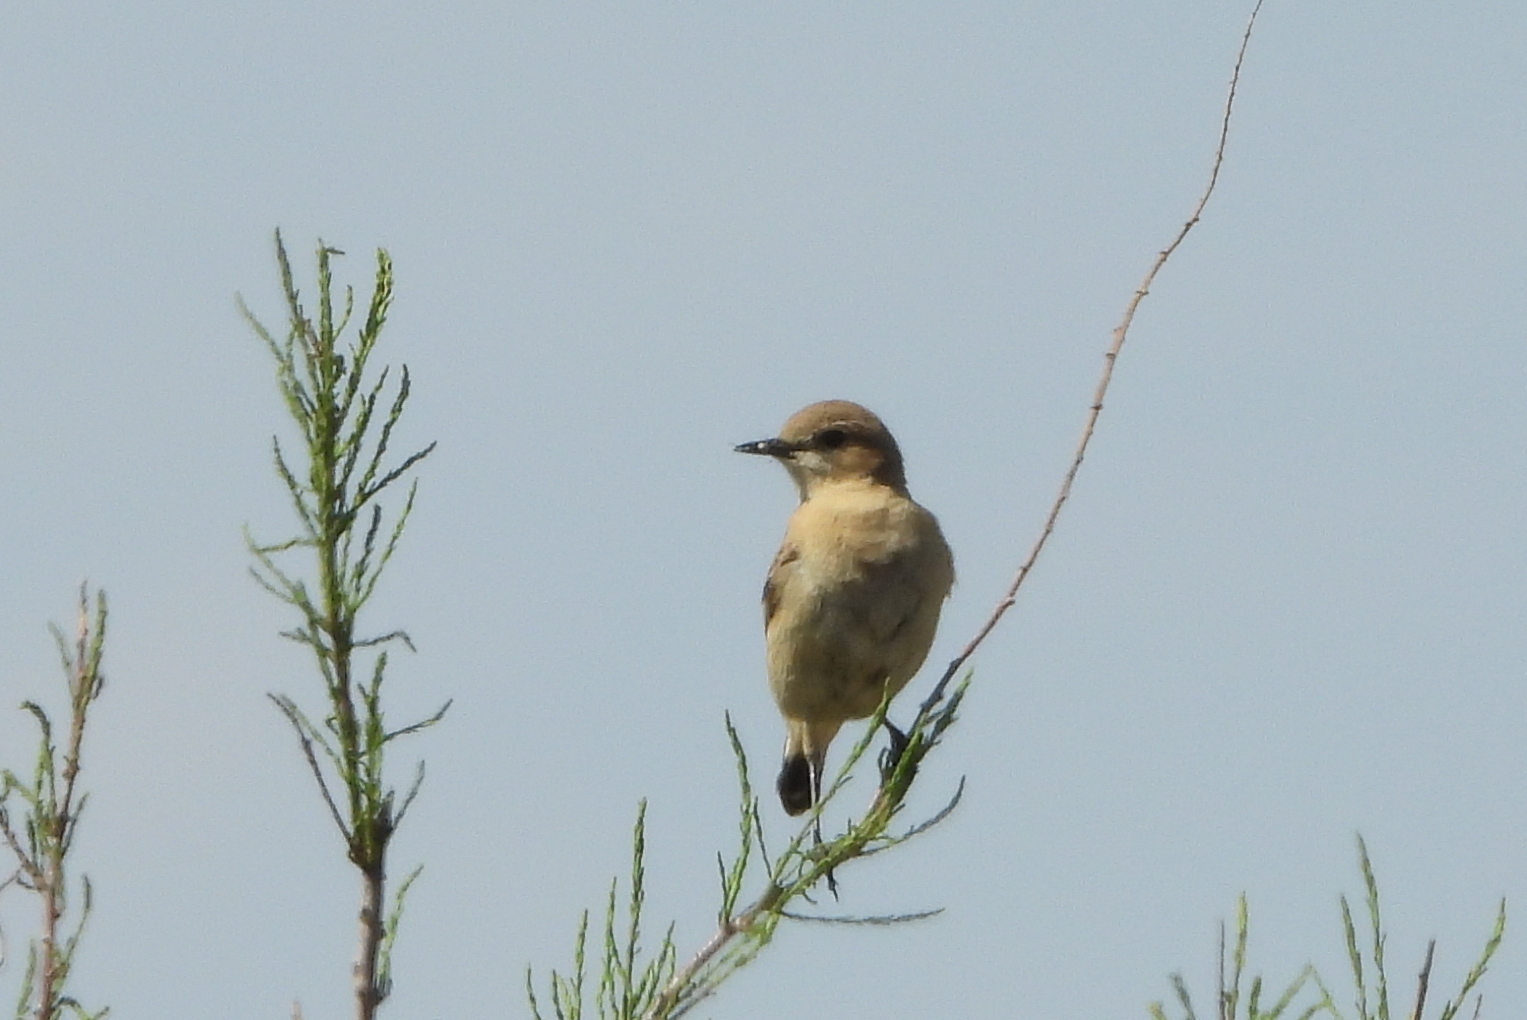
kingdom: Animalia
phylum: Chordata
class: Aves
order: Passeriformes
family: Muscicapidae
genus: Oenanthe
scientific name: Oenanthe isabellina
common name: Isabelline wheatear
